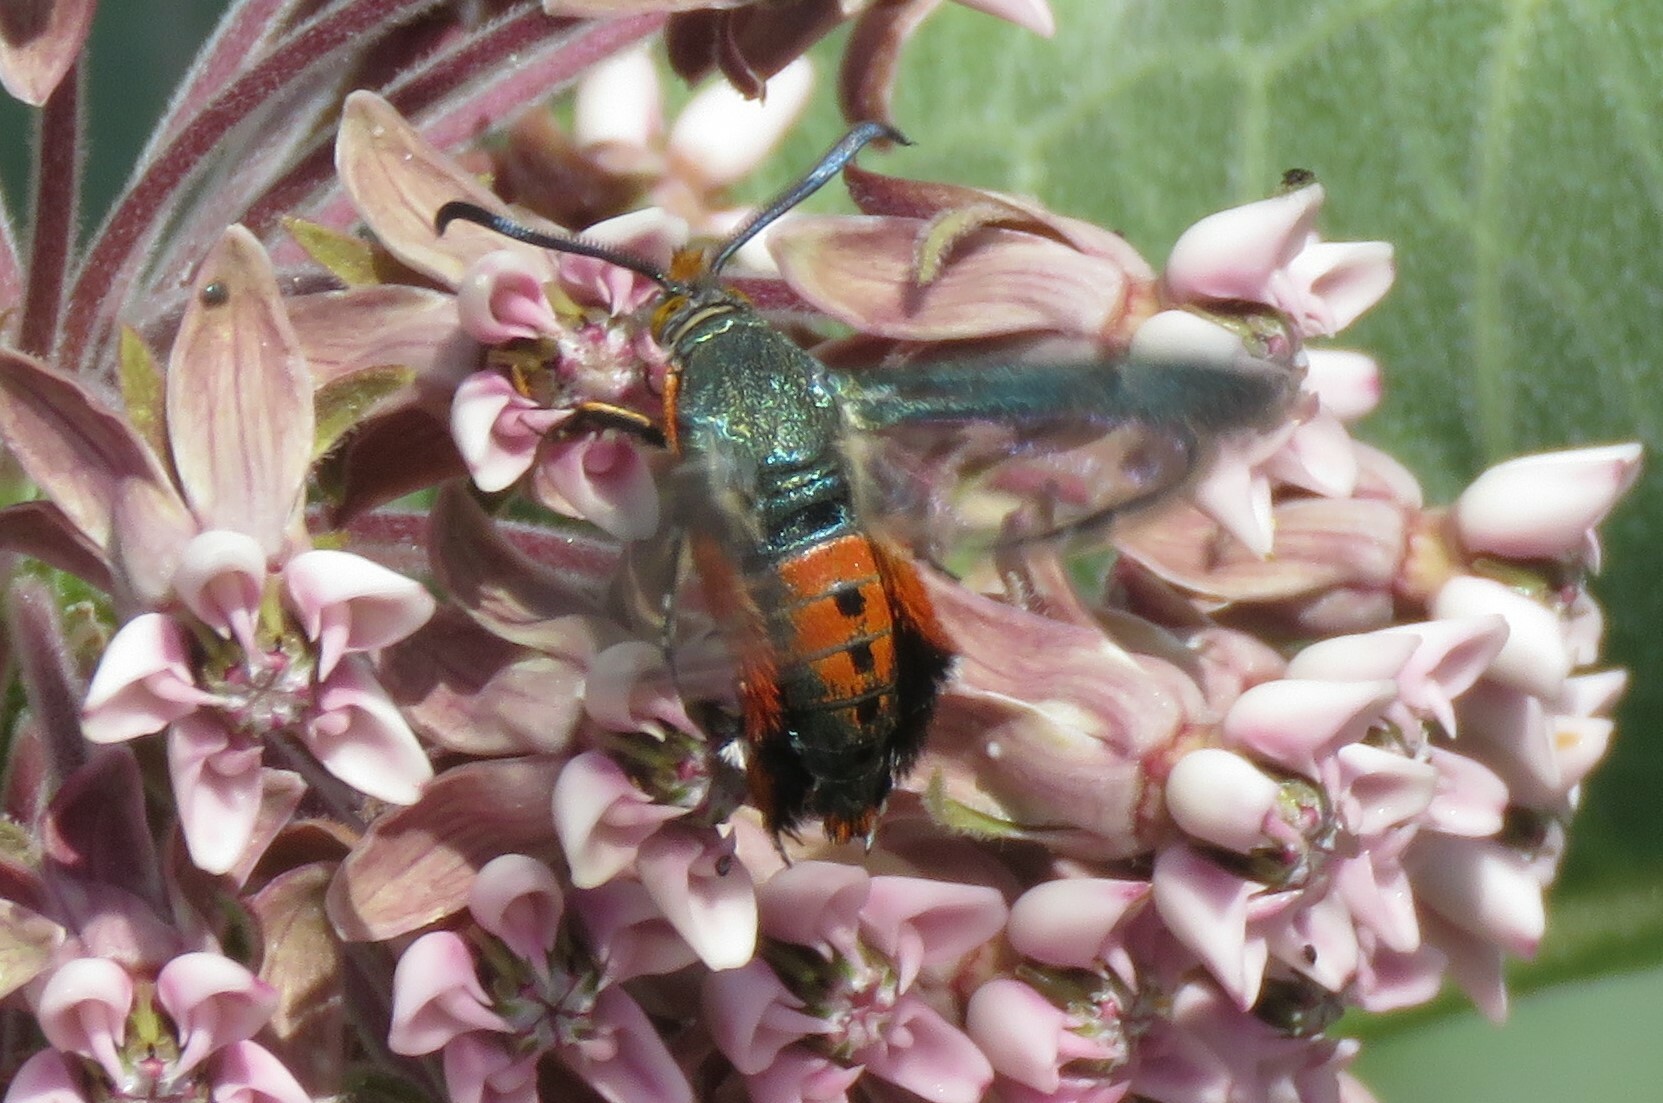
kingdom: Animalia
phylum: Arthropoda
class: Insecta
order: Lepidoptera
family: Sesiidae
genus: Eichlinia
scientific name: Eichlinia cucurbitae
